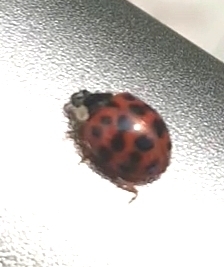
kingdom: Animalia
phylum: Arthropoda
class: Insecta
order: Coleoptera
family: Coccinellidae
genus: Harmonia
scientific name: Harmonia axyridis
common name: Harlequin ladybird
